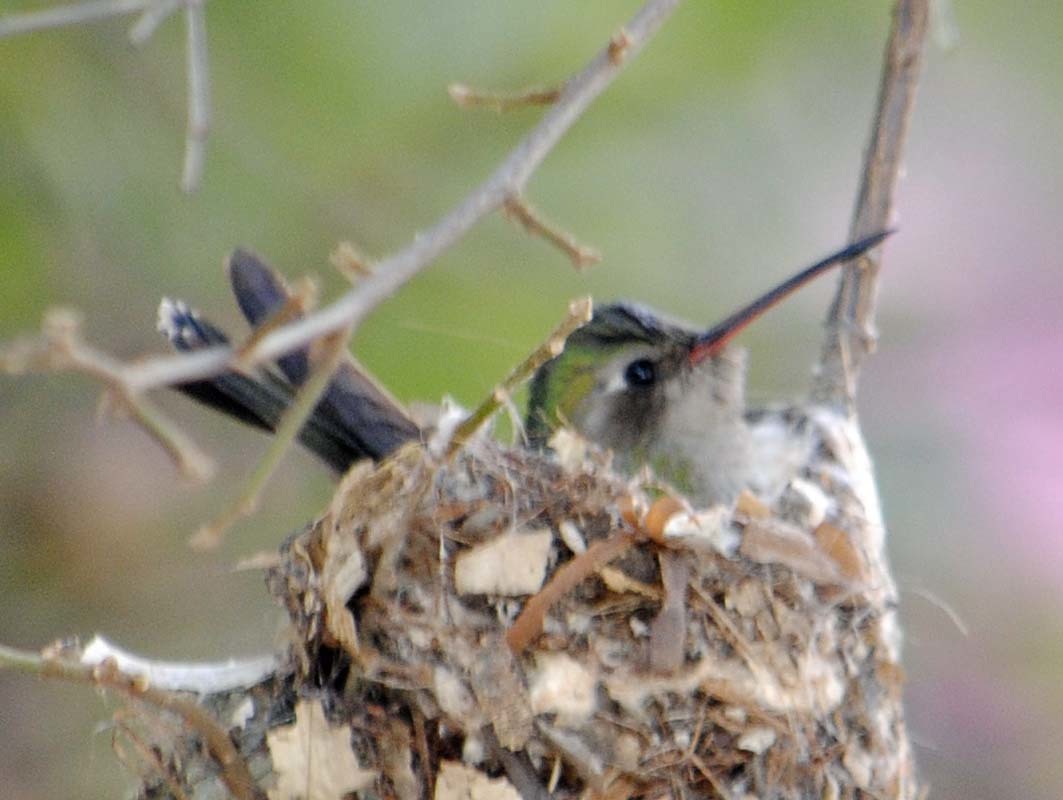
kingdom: Animalia
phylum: Chordata
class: Aves
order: Apodiformes
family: Trochilidae
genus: Cynanthus
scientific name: Cynanthus latirostris
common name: Broad-billed hummingbird
